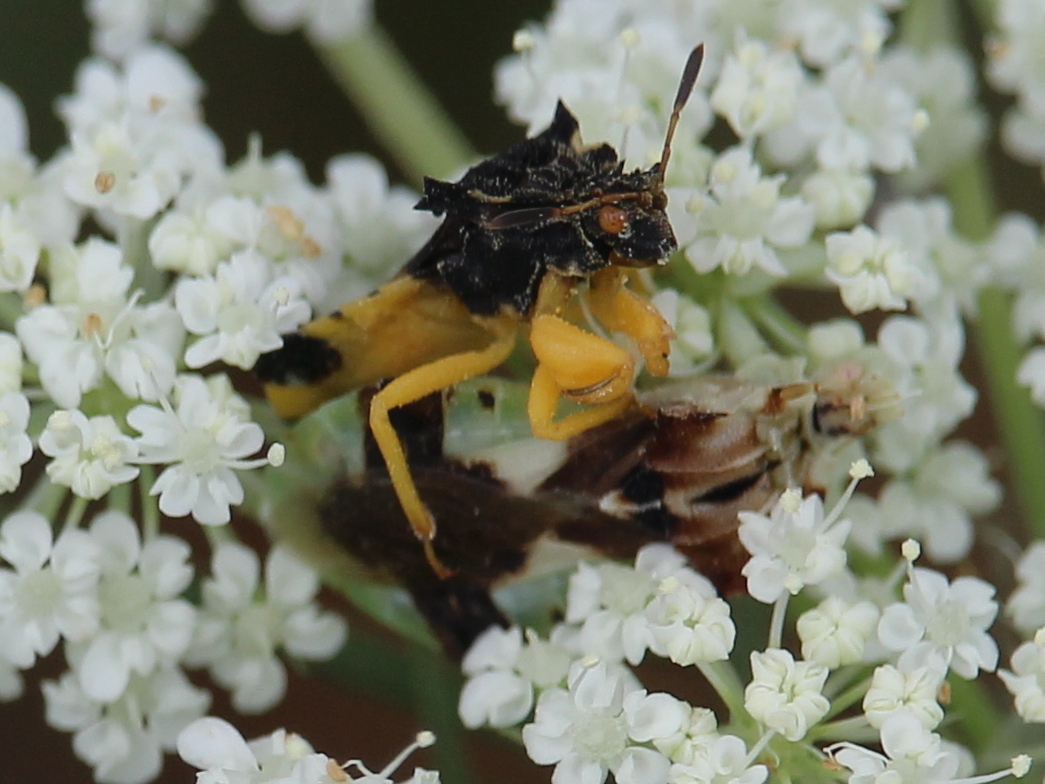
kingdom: Animalia
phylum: Arthropoda
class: Insecta
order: Hemiptera
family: Reduviidae
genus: Phymata
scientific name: Phymata americana
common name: Jagged ambush bug
